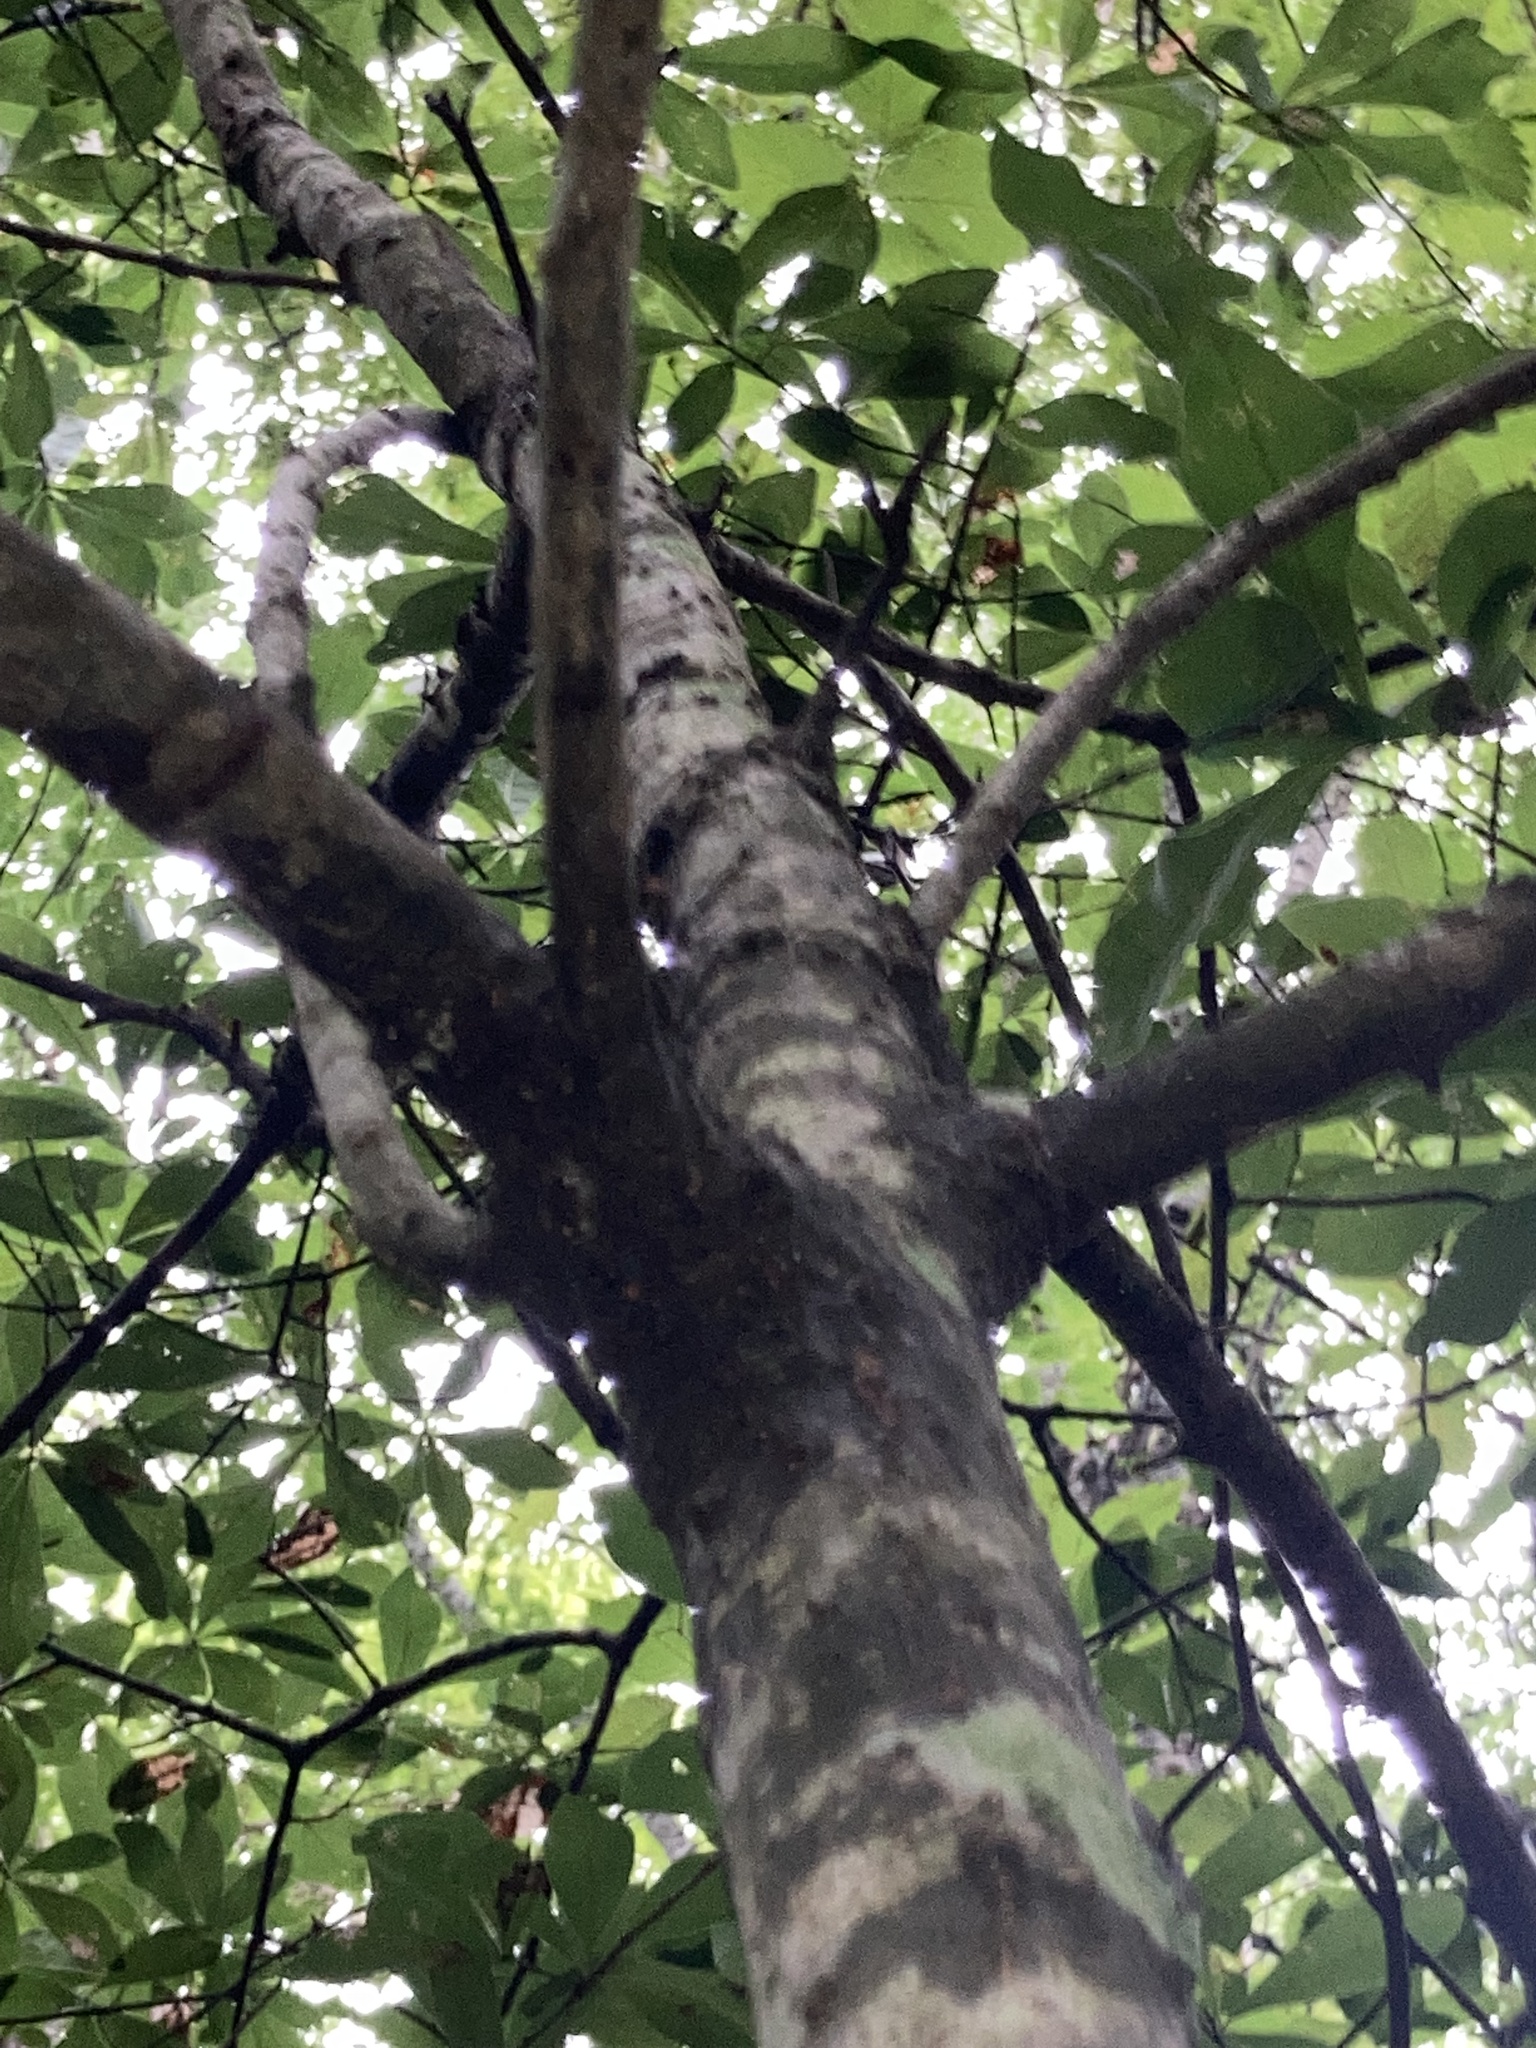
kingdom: Plantae
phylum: Tracheophyta
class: Magnoliopsida
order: Fagales
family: Fagaceae
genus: Quercus
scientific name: Quercus nigra
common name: Water oak
